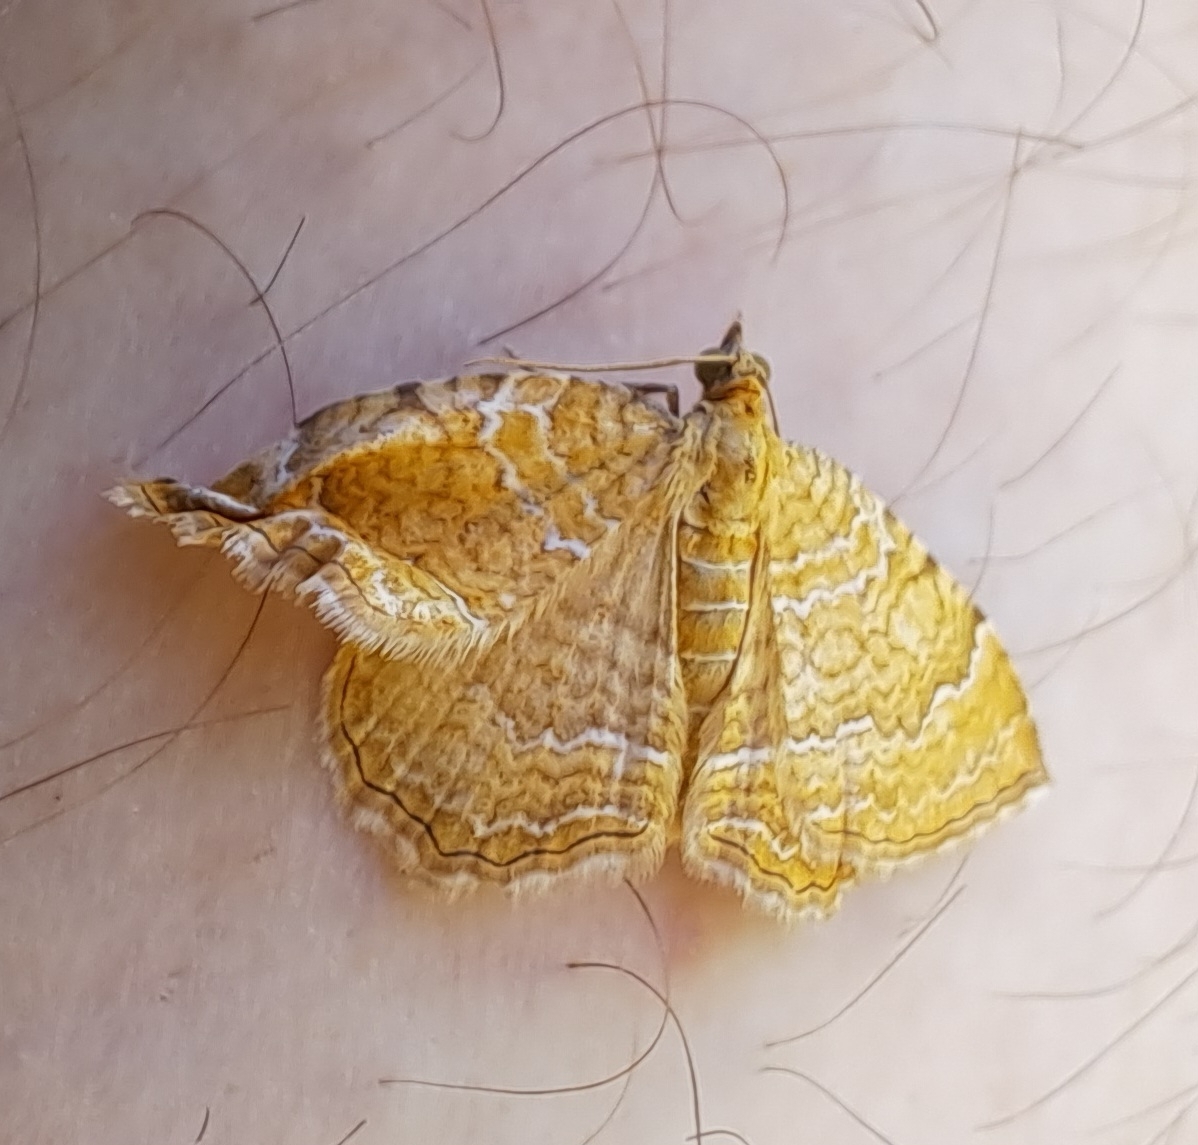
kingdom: Animalia
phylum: Arthropoda
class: Insecta
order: Lepidoptera
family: Geometridae
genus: Camptogramma
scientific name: Camptogramma bilineata
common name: Yellow shell
